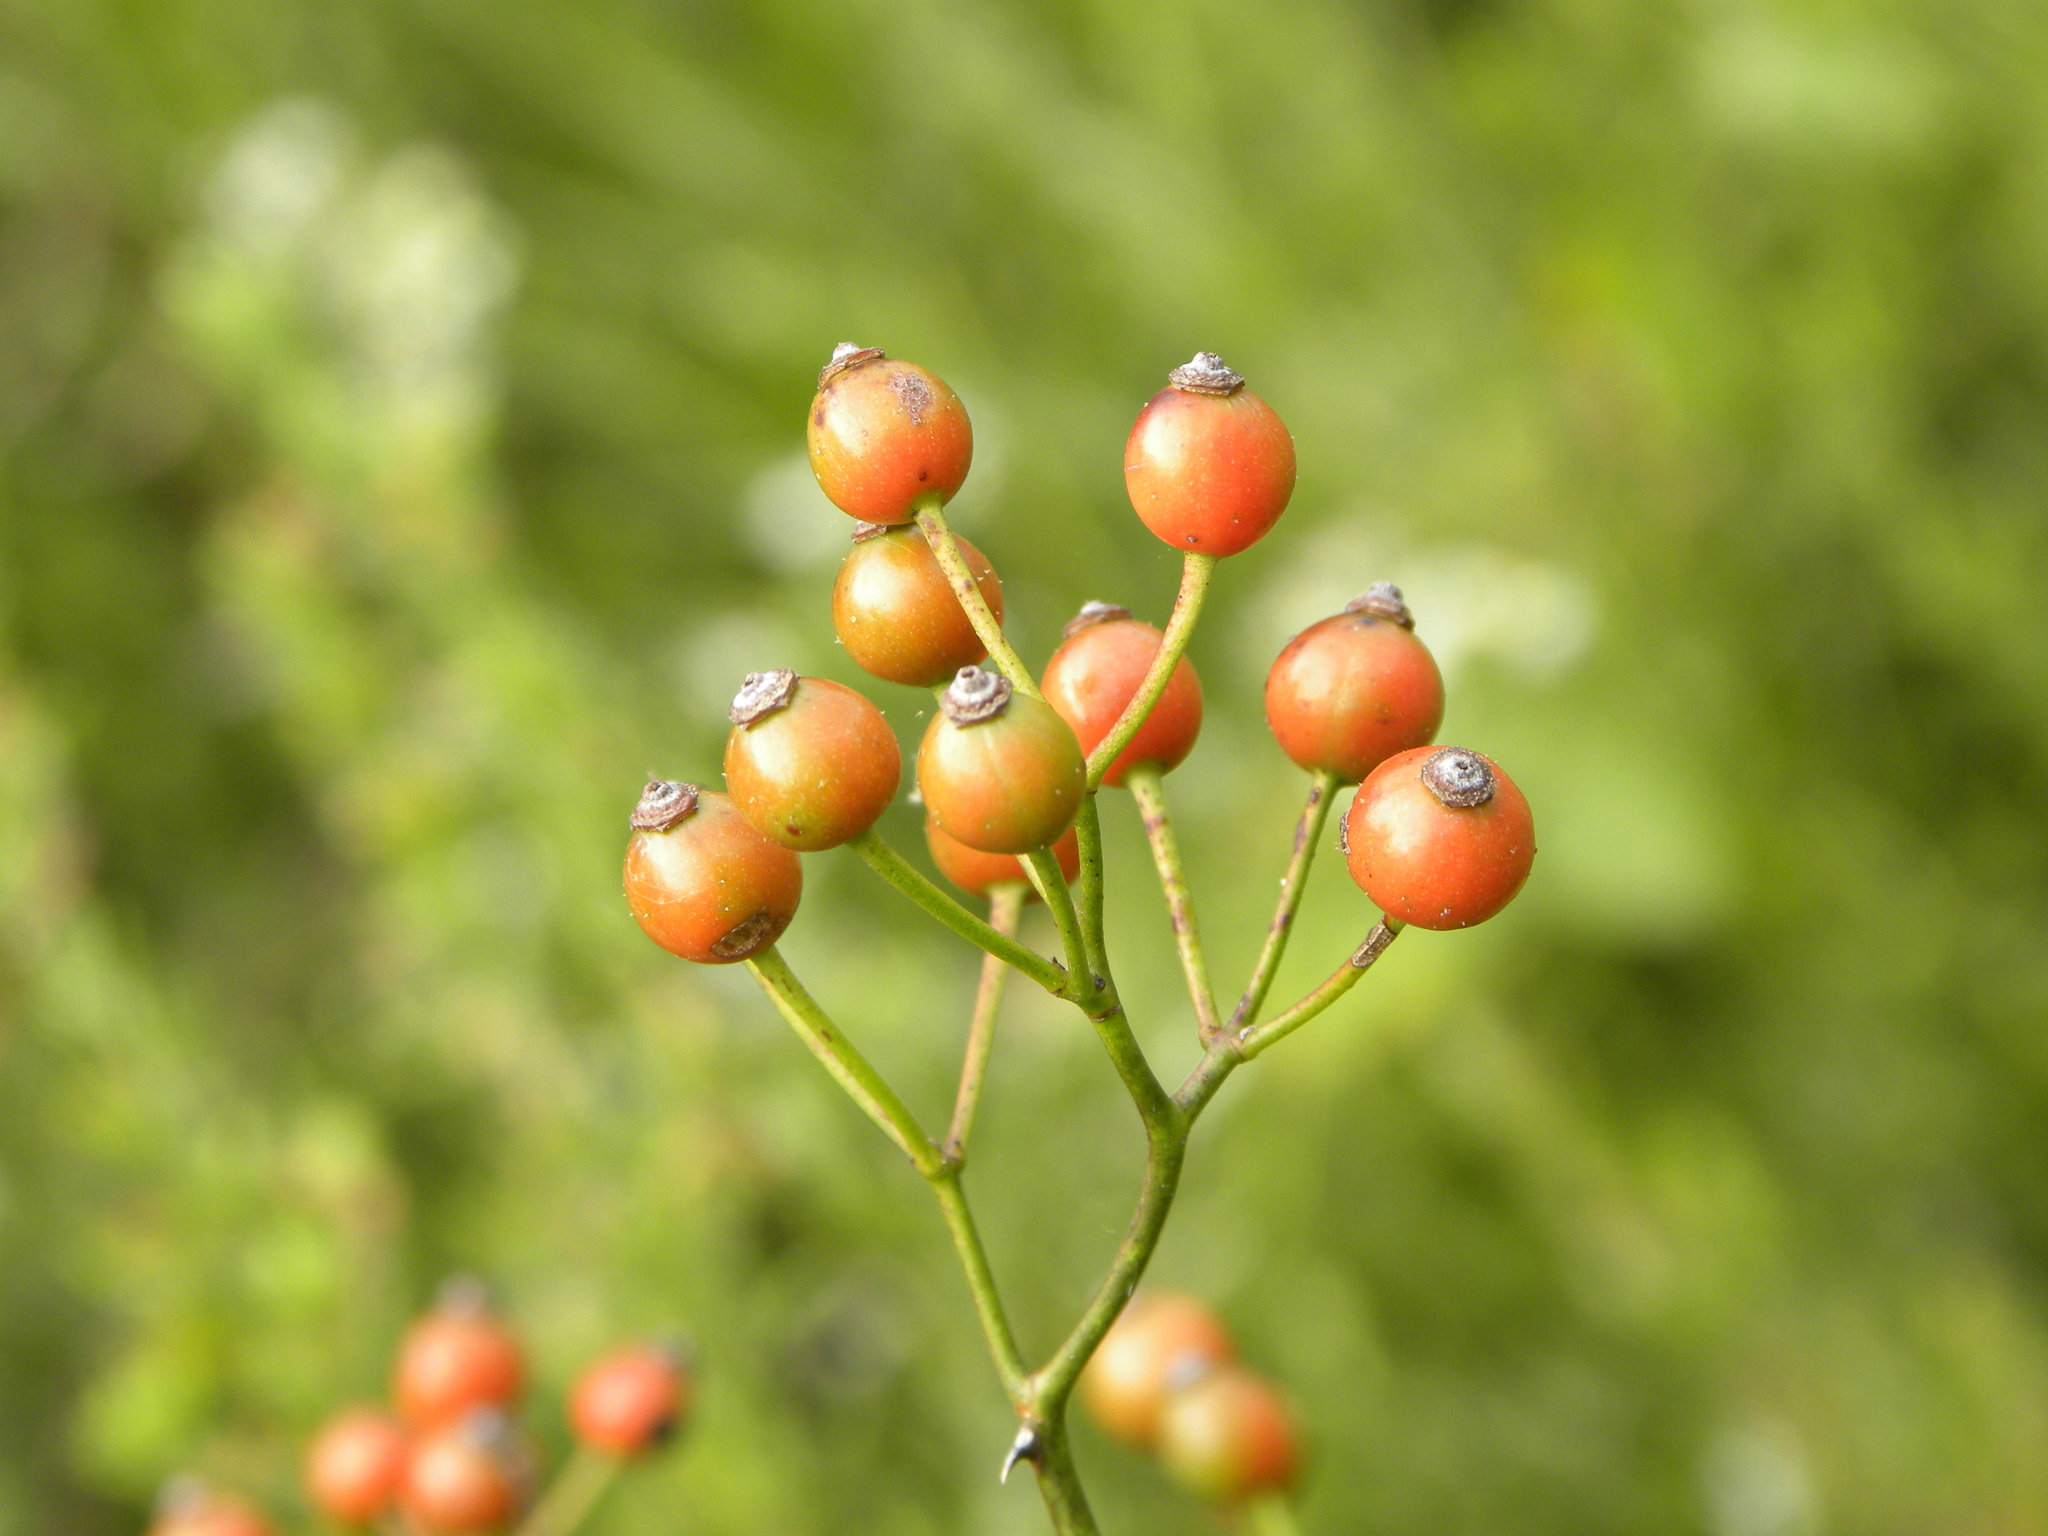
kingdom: Plantae
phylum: Tracheophyta
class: Magnoliopsida
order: Rosales
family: Rosaceae
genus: Rosa
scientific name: Rosa multiflora
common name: Multiflora rose
